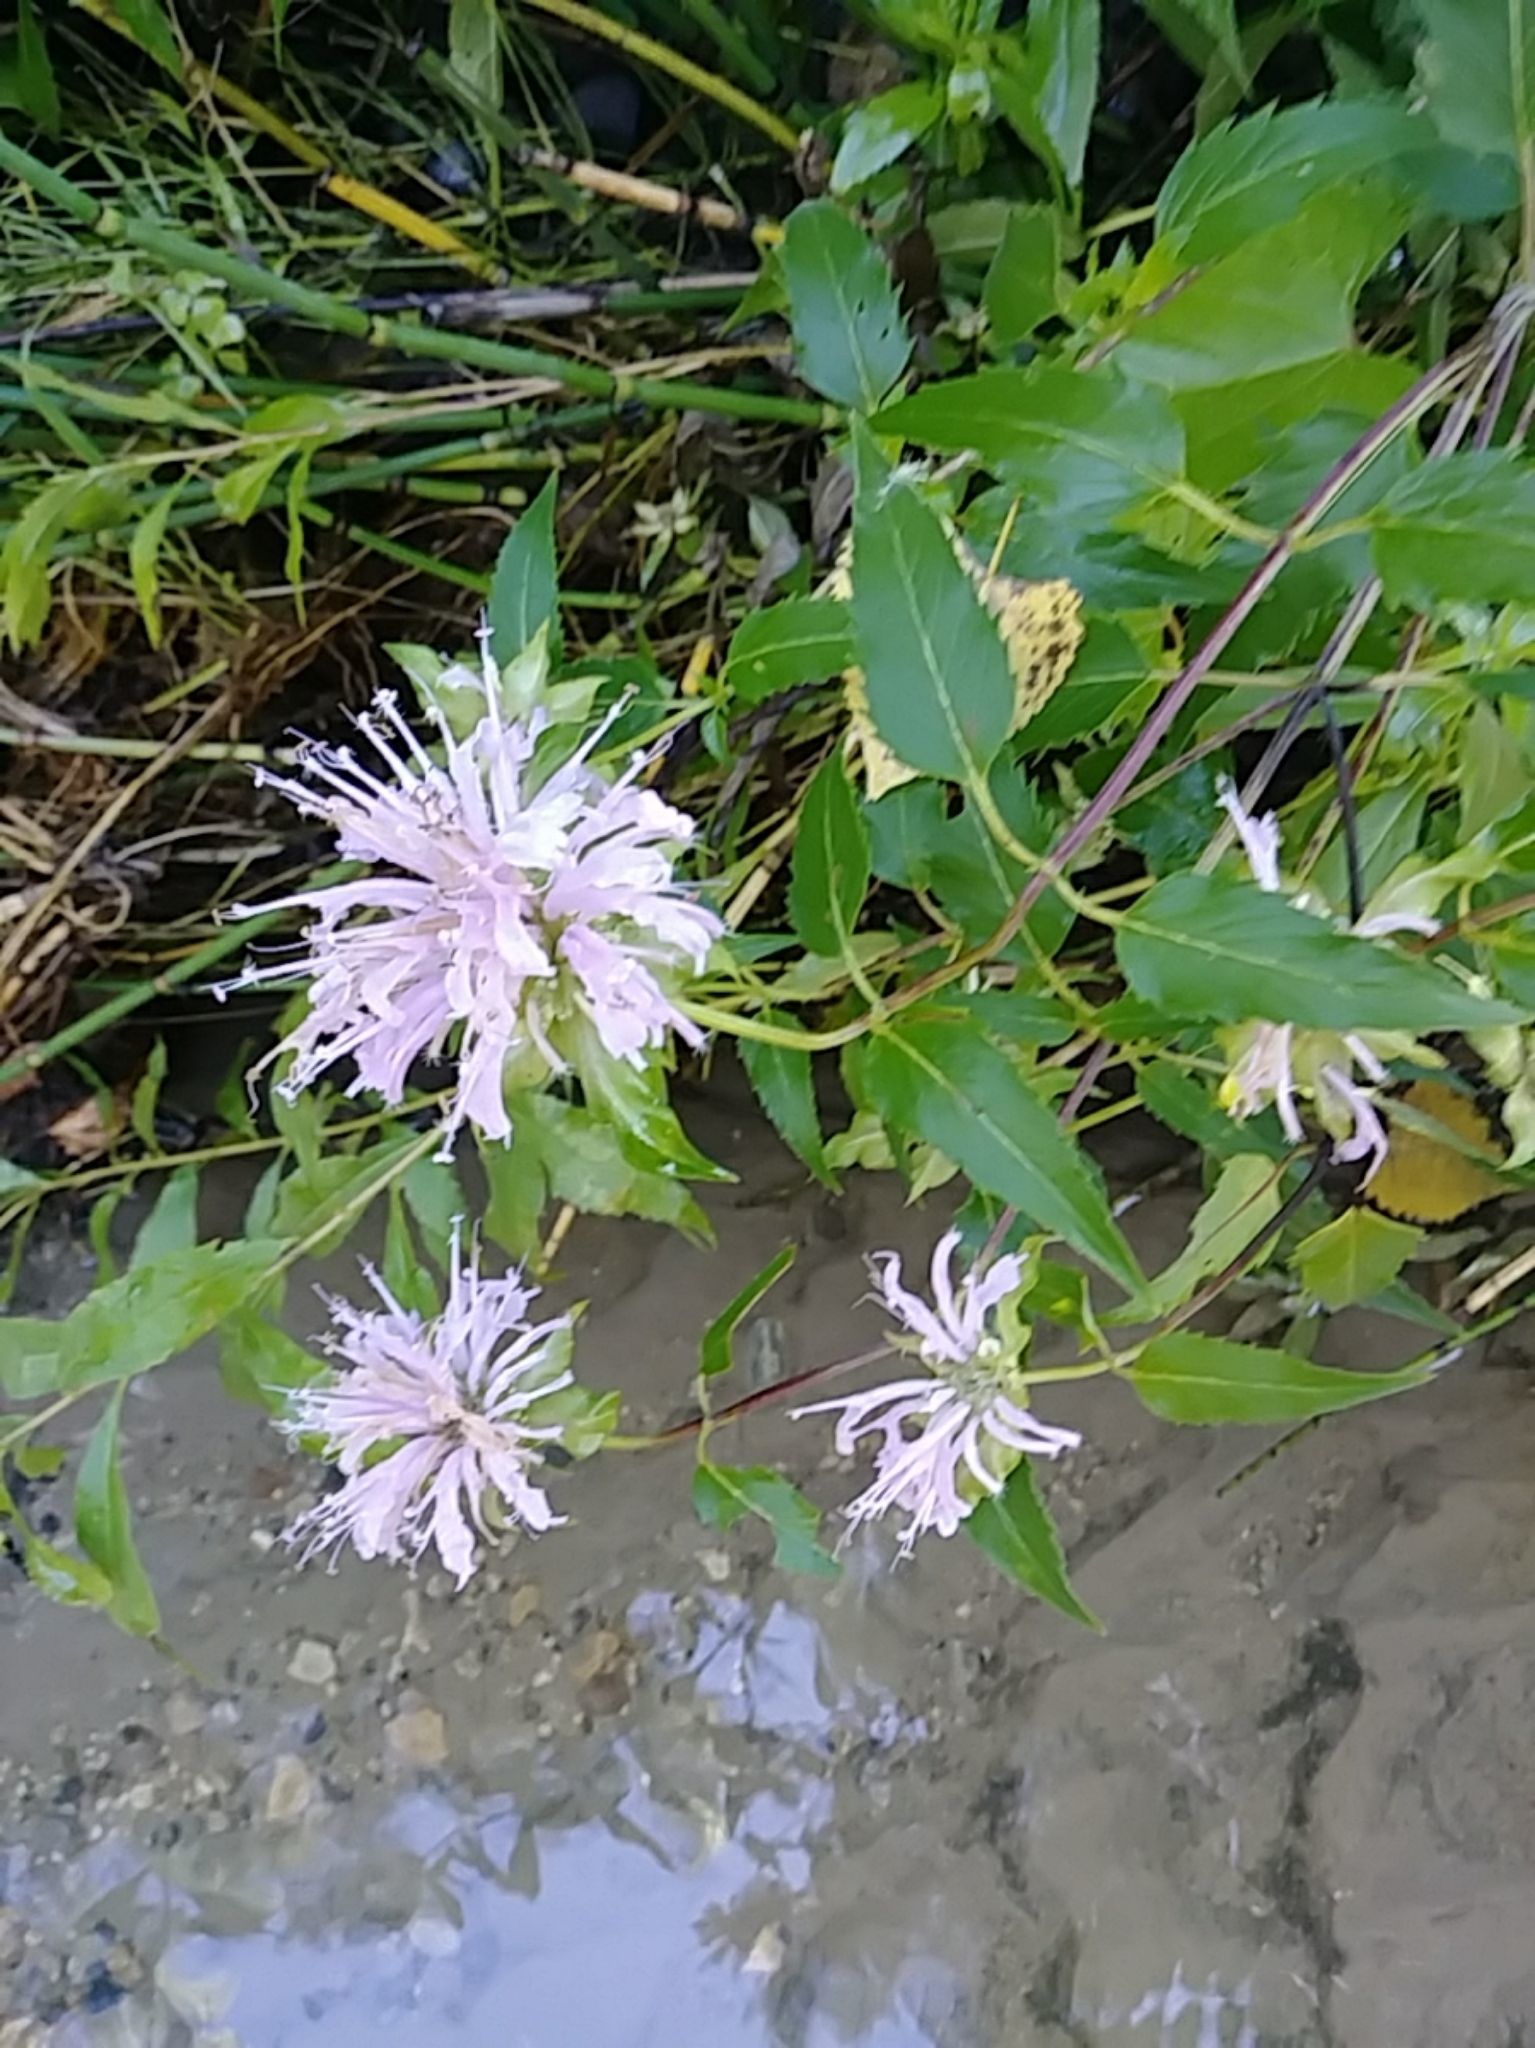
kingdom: Plantae
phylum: Tracheophyta
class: Magnoliopsida
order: Lamiales
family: Lamiaceae
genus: Monarda
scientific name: Monarda fistulosa
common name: Purple beebalm
